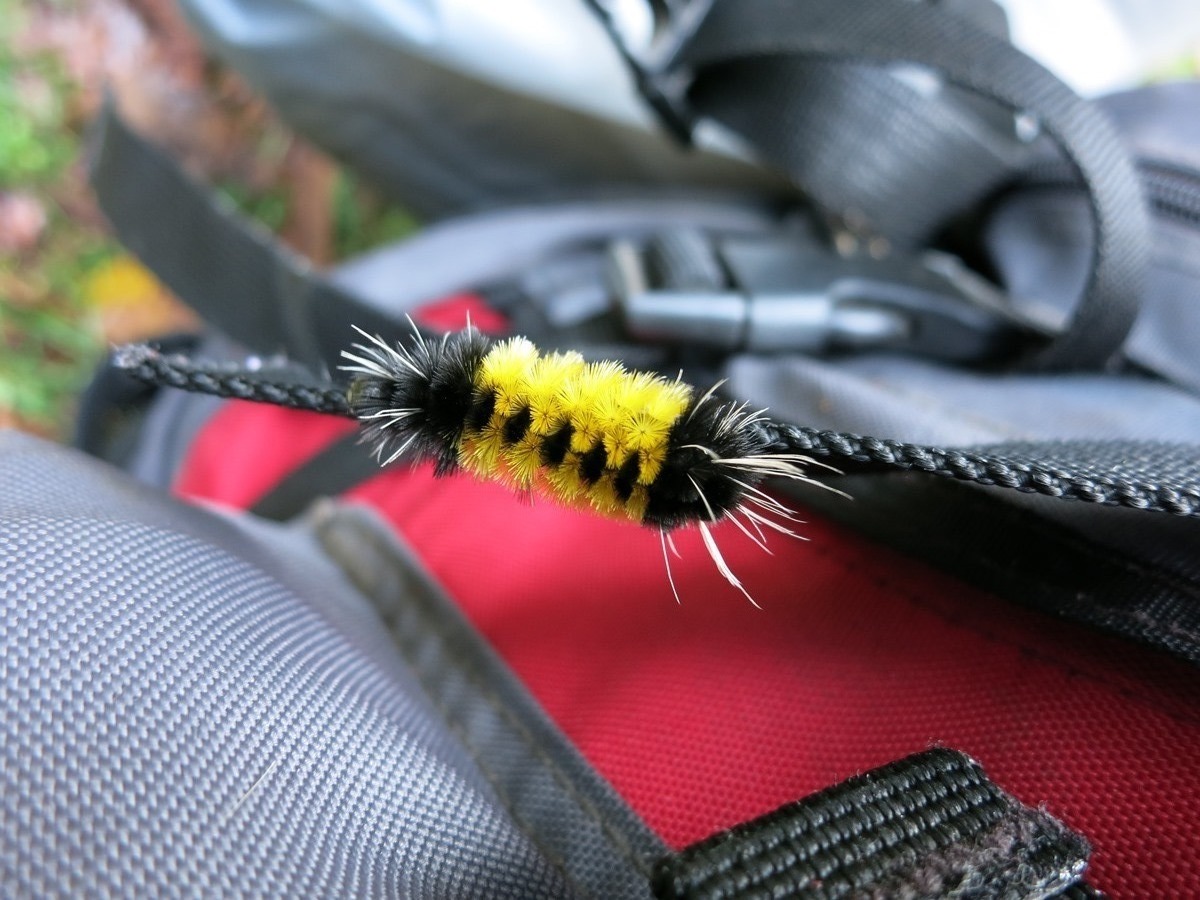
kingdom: Animalia
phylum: Arthropoda
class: Insecta
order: Lepidoptera
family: Erebidae
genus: Lophocampa
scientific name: Lophocampa maculata
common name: Spotted tussock moth
